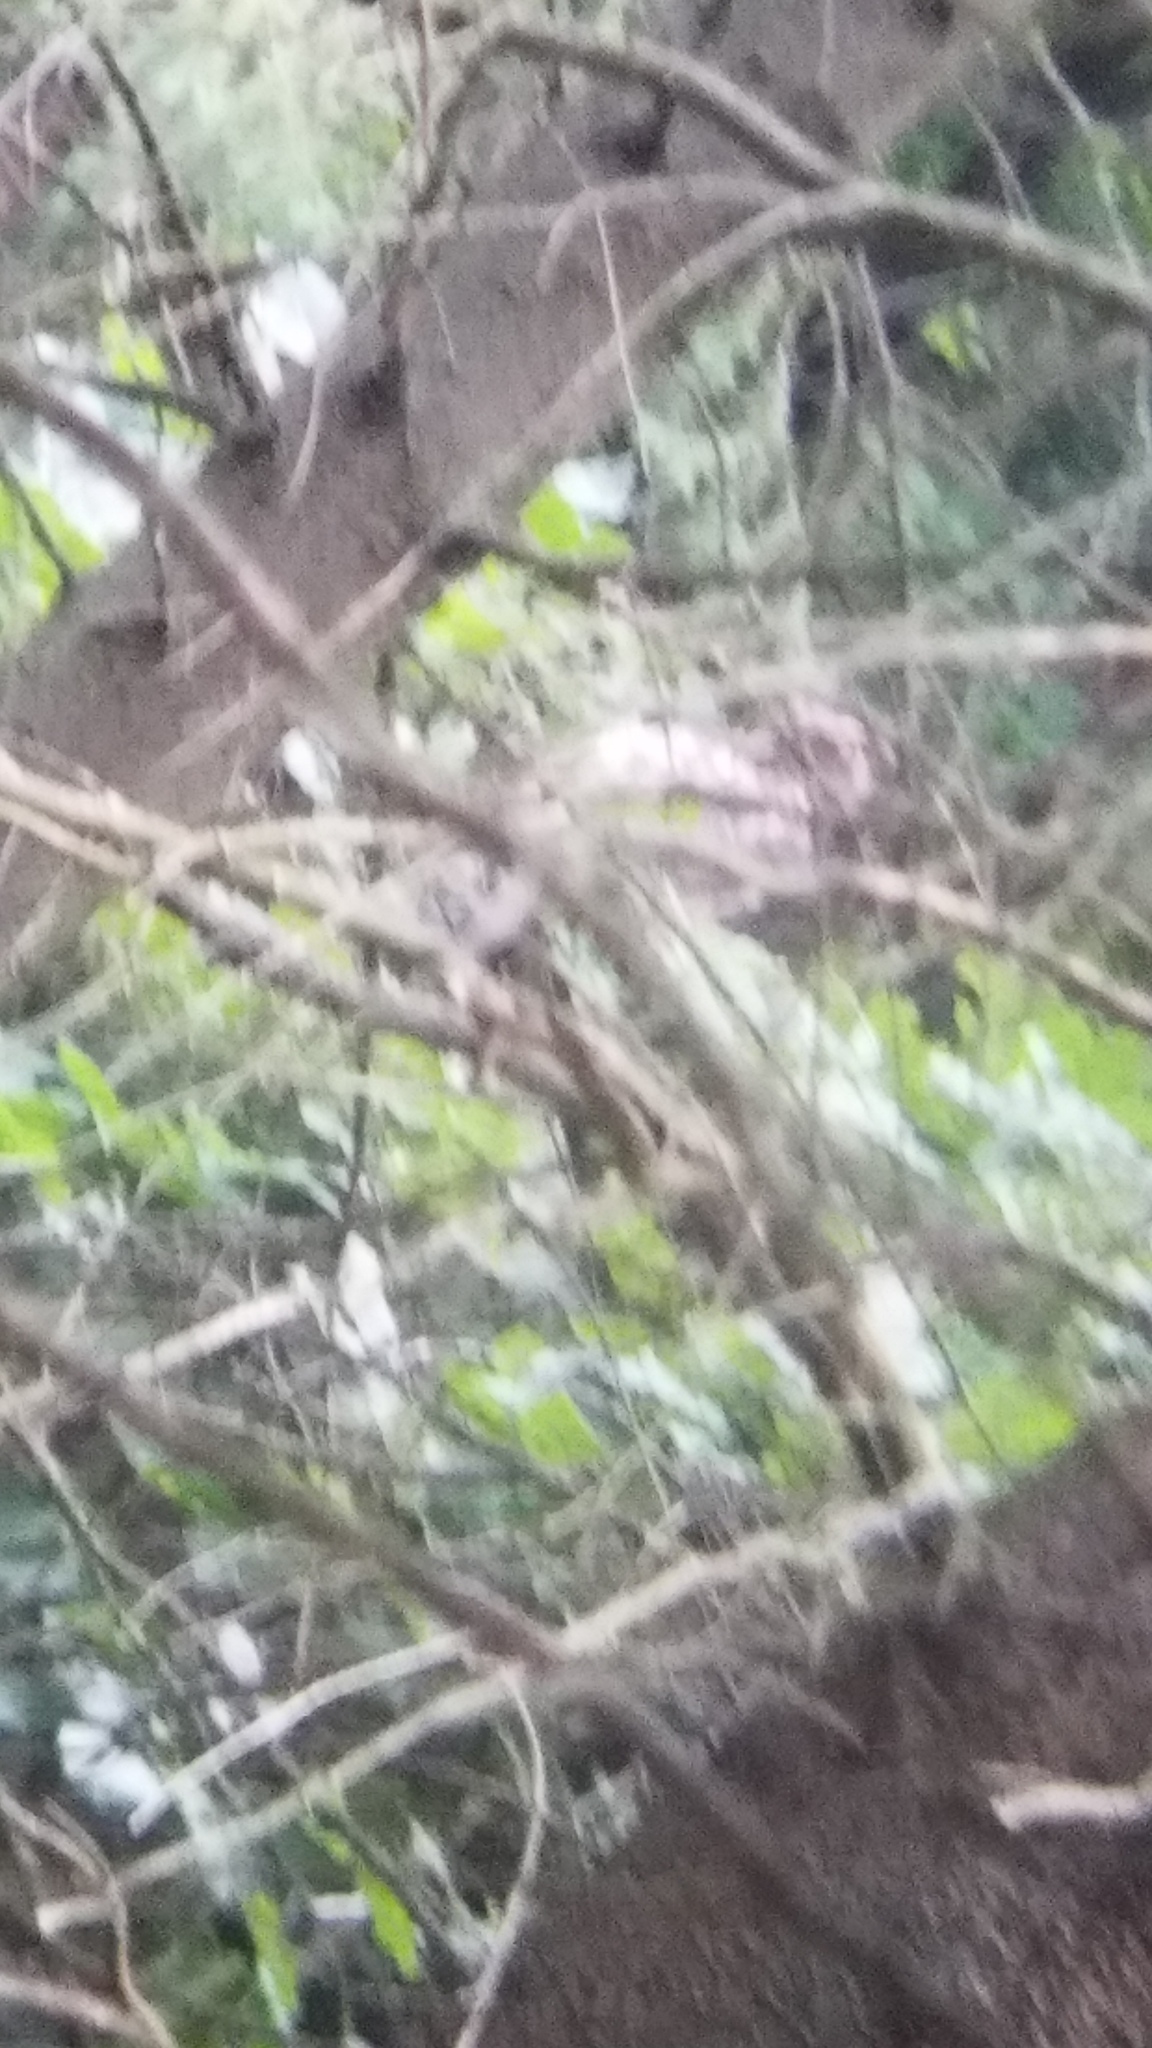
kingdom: Animalia
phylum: Chordata
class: Aves
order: Strigiformes
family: Strigidae
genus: Bubo
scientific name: Bubo virginianus
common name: Great horned owl
